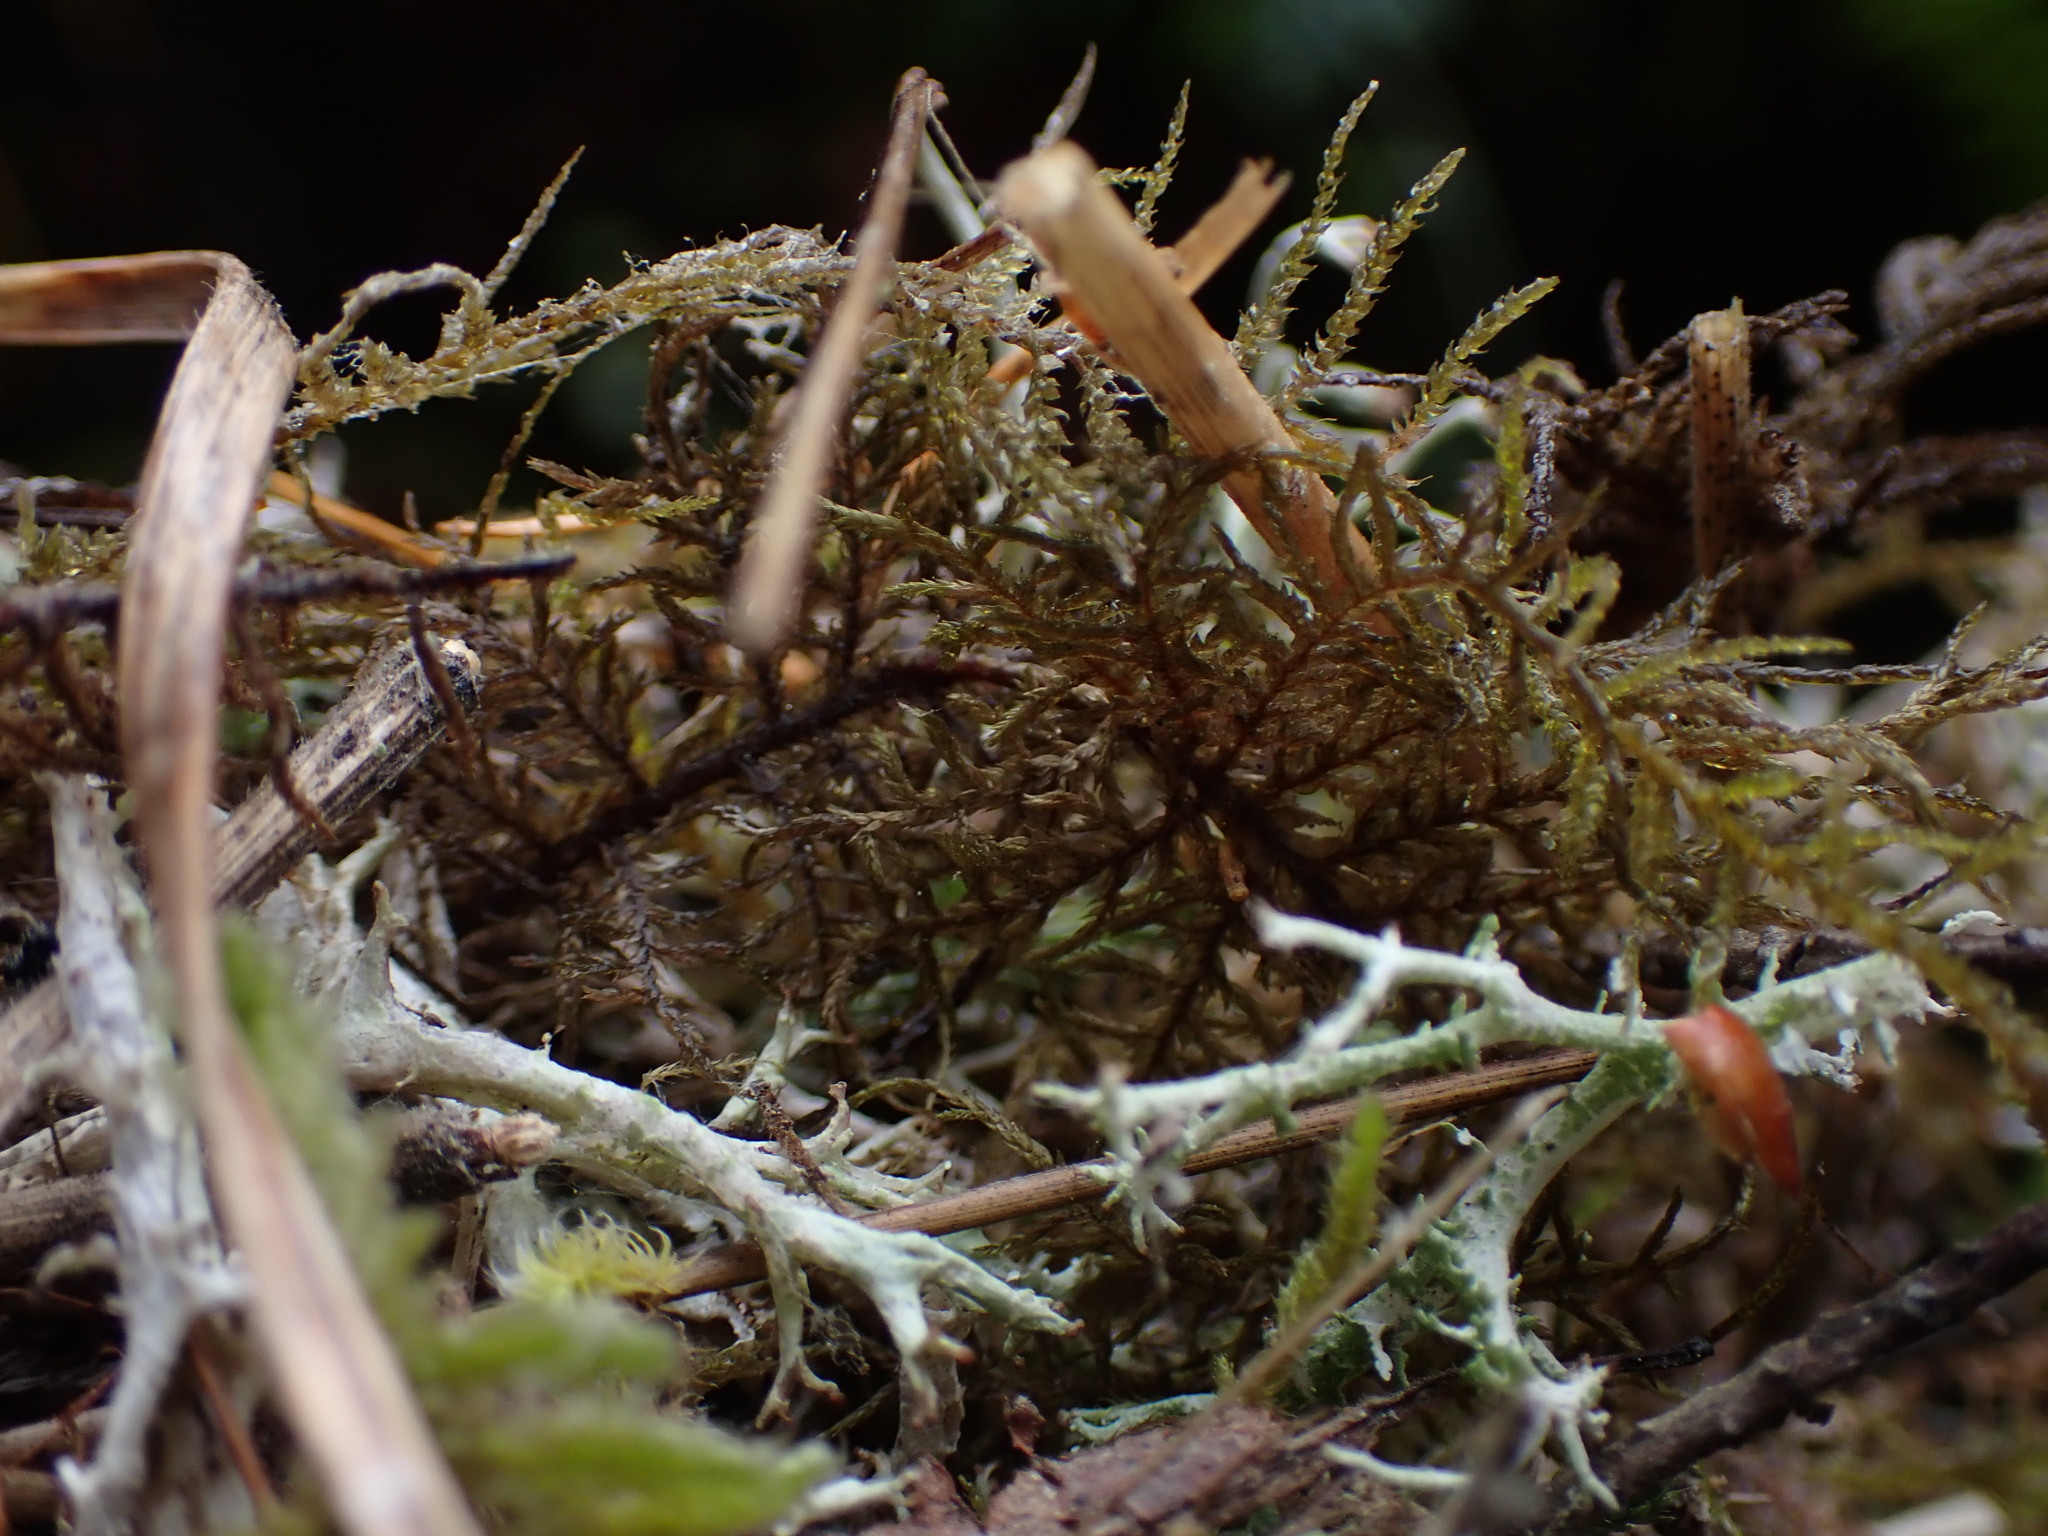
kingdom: Plantae
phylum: Bryophyta
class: Bryopsida
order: Hypnales
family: Hylocomiaceae
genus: Hylocomium
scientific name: Hylocomium splendens
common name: Stairstep moss
